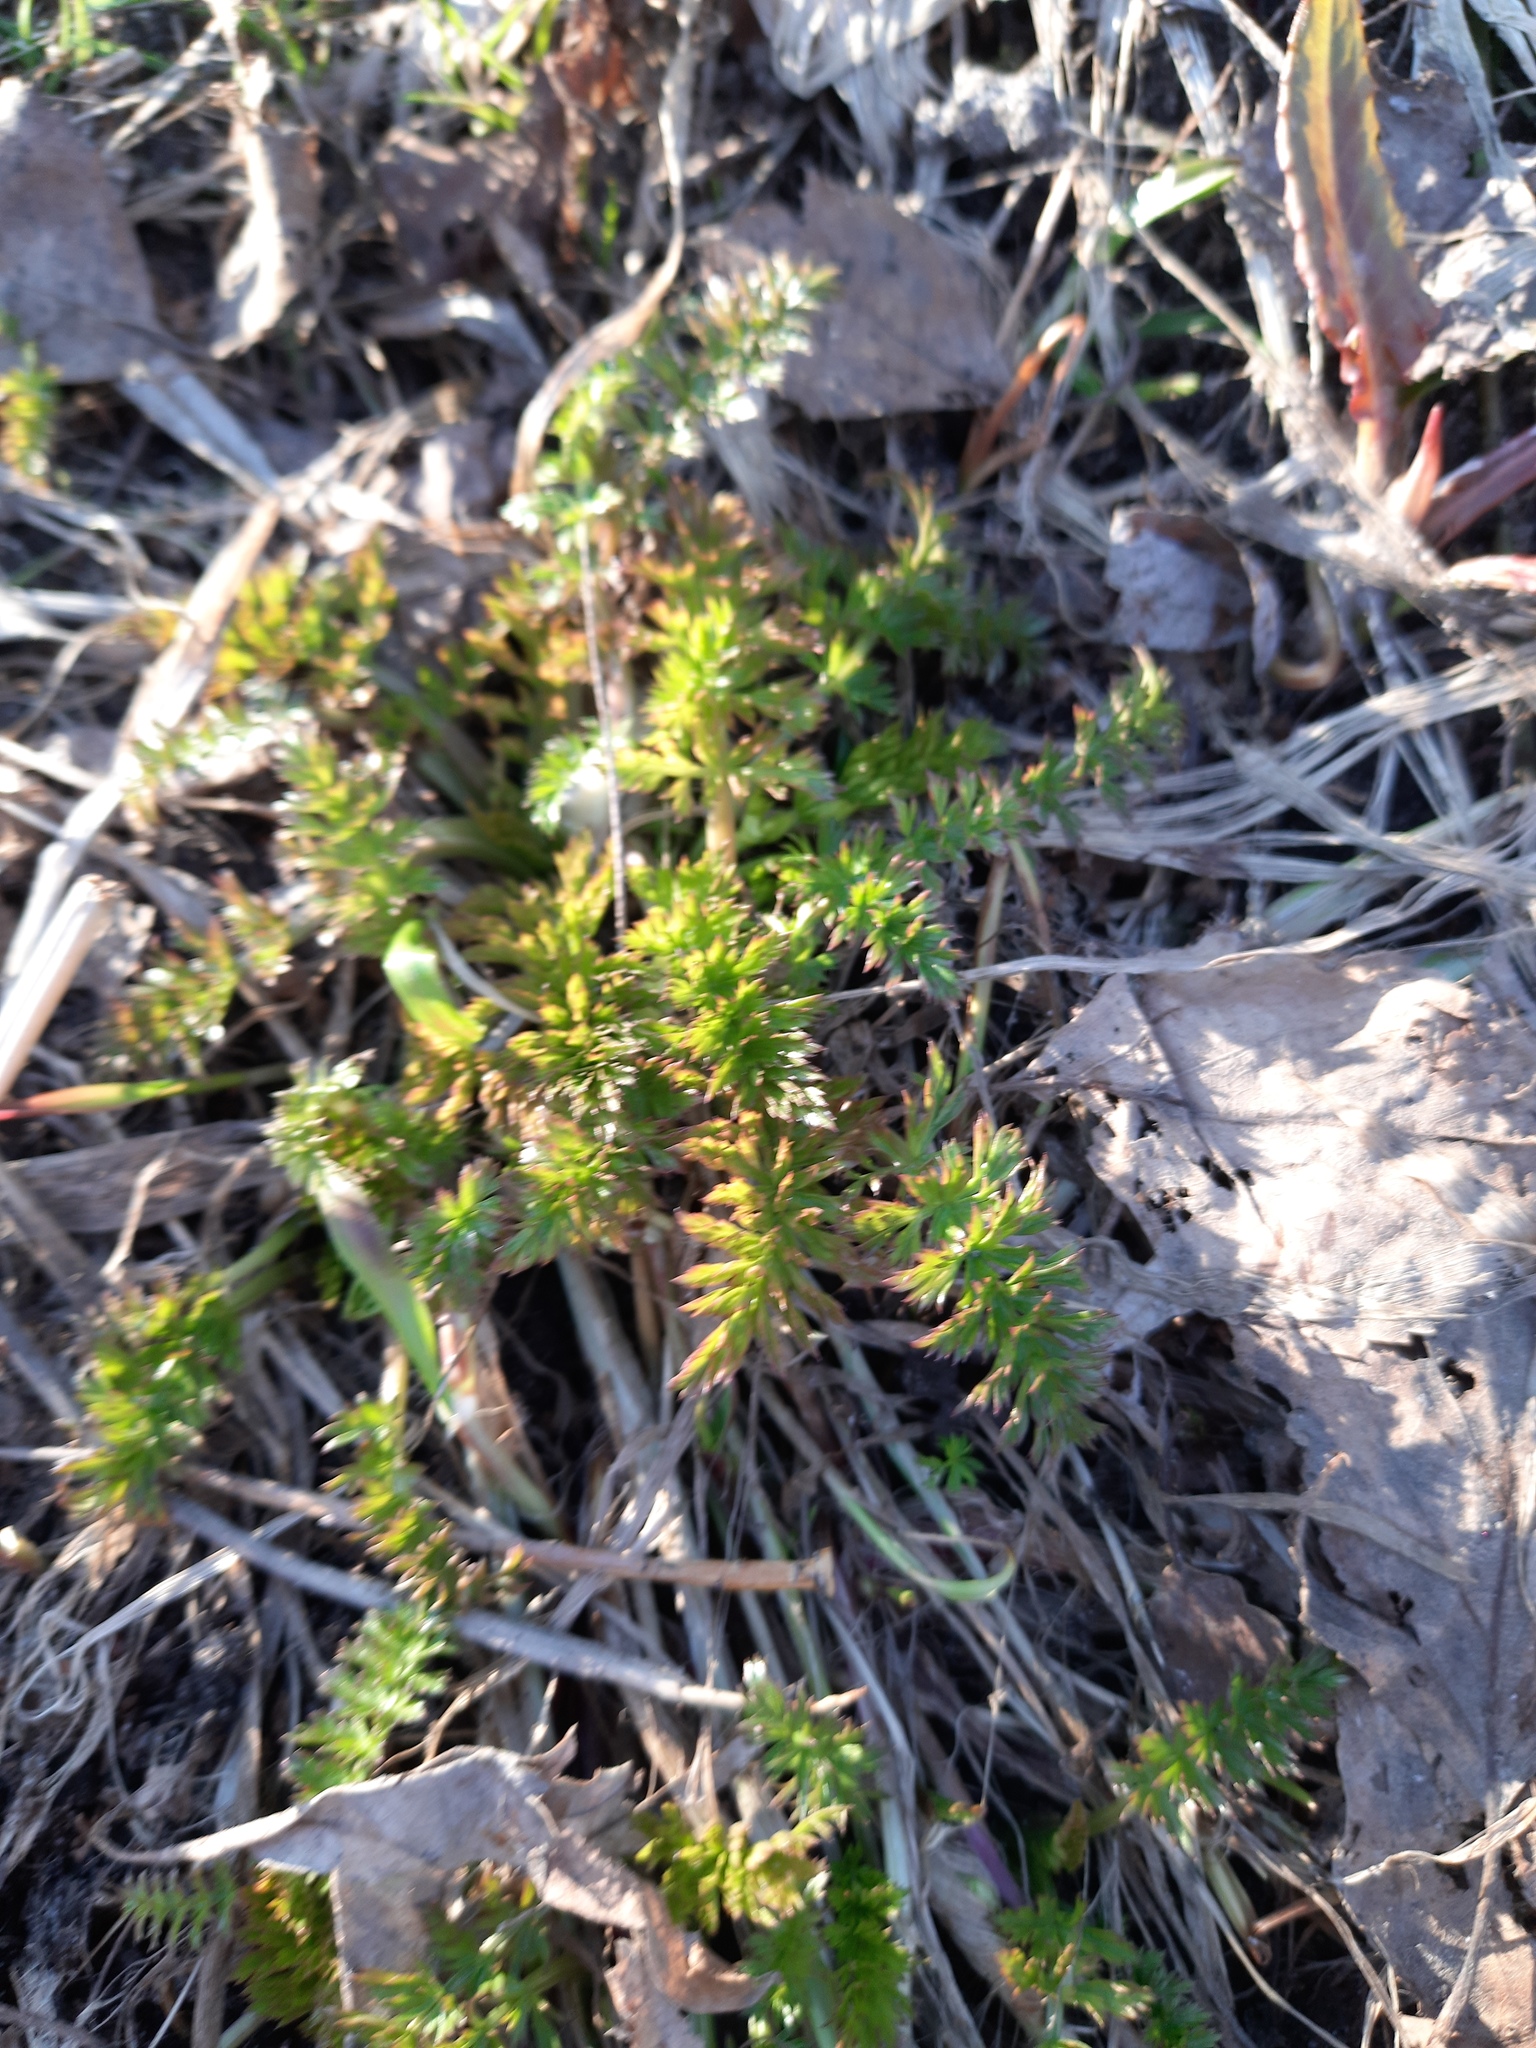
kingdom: Plantae
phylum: Tracheophyta
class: Magnoliopsida
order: Apiales
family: Apiaceae
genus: Carum
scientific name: Carum carvi
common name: Caraway
